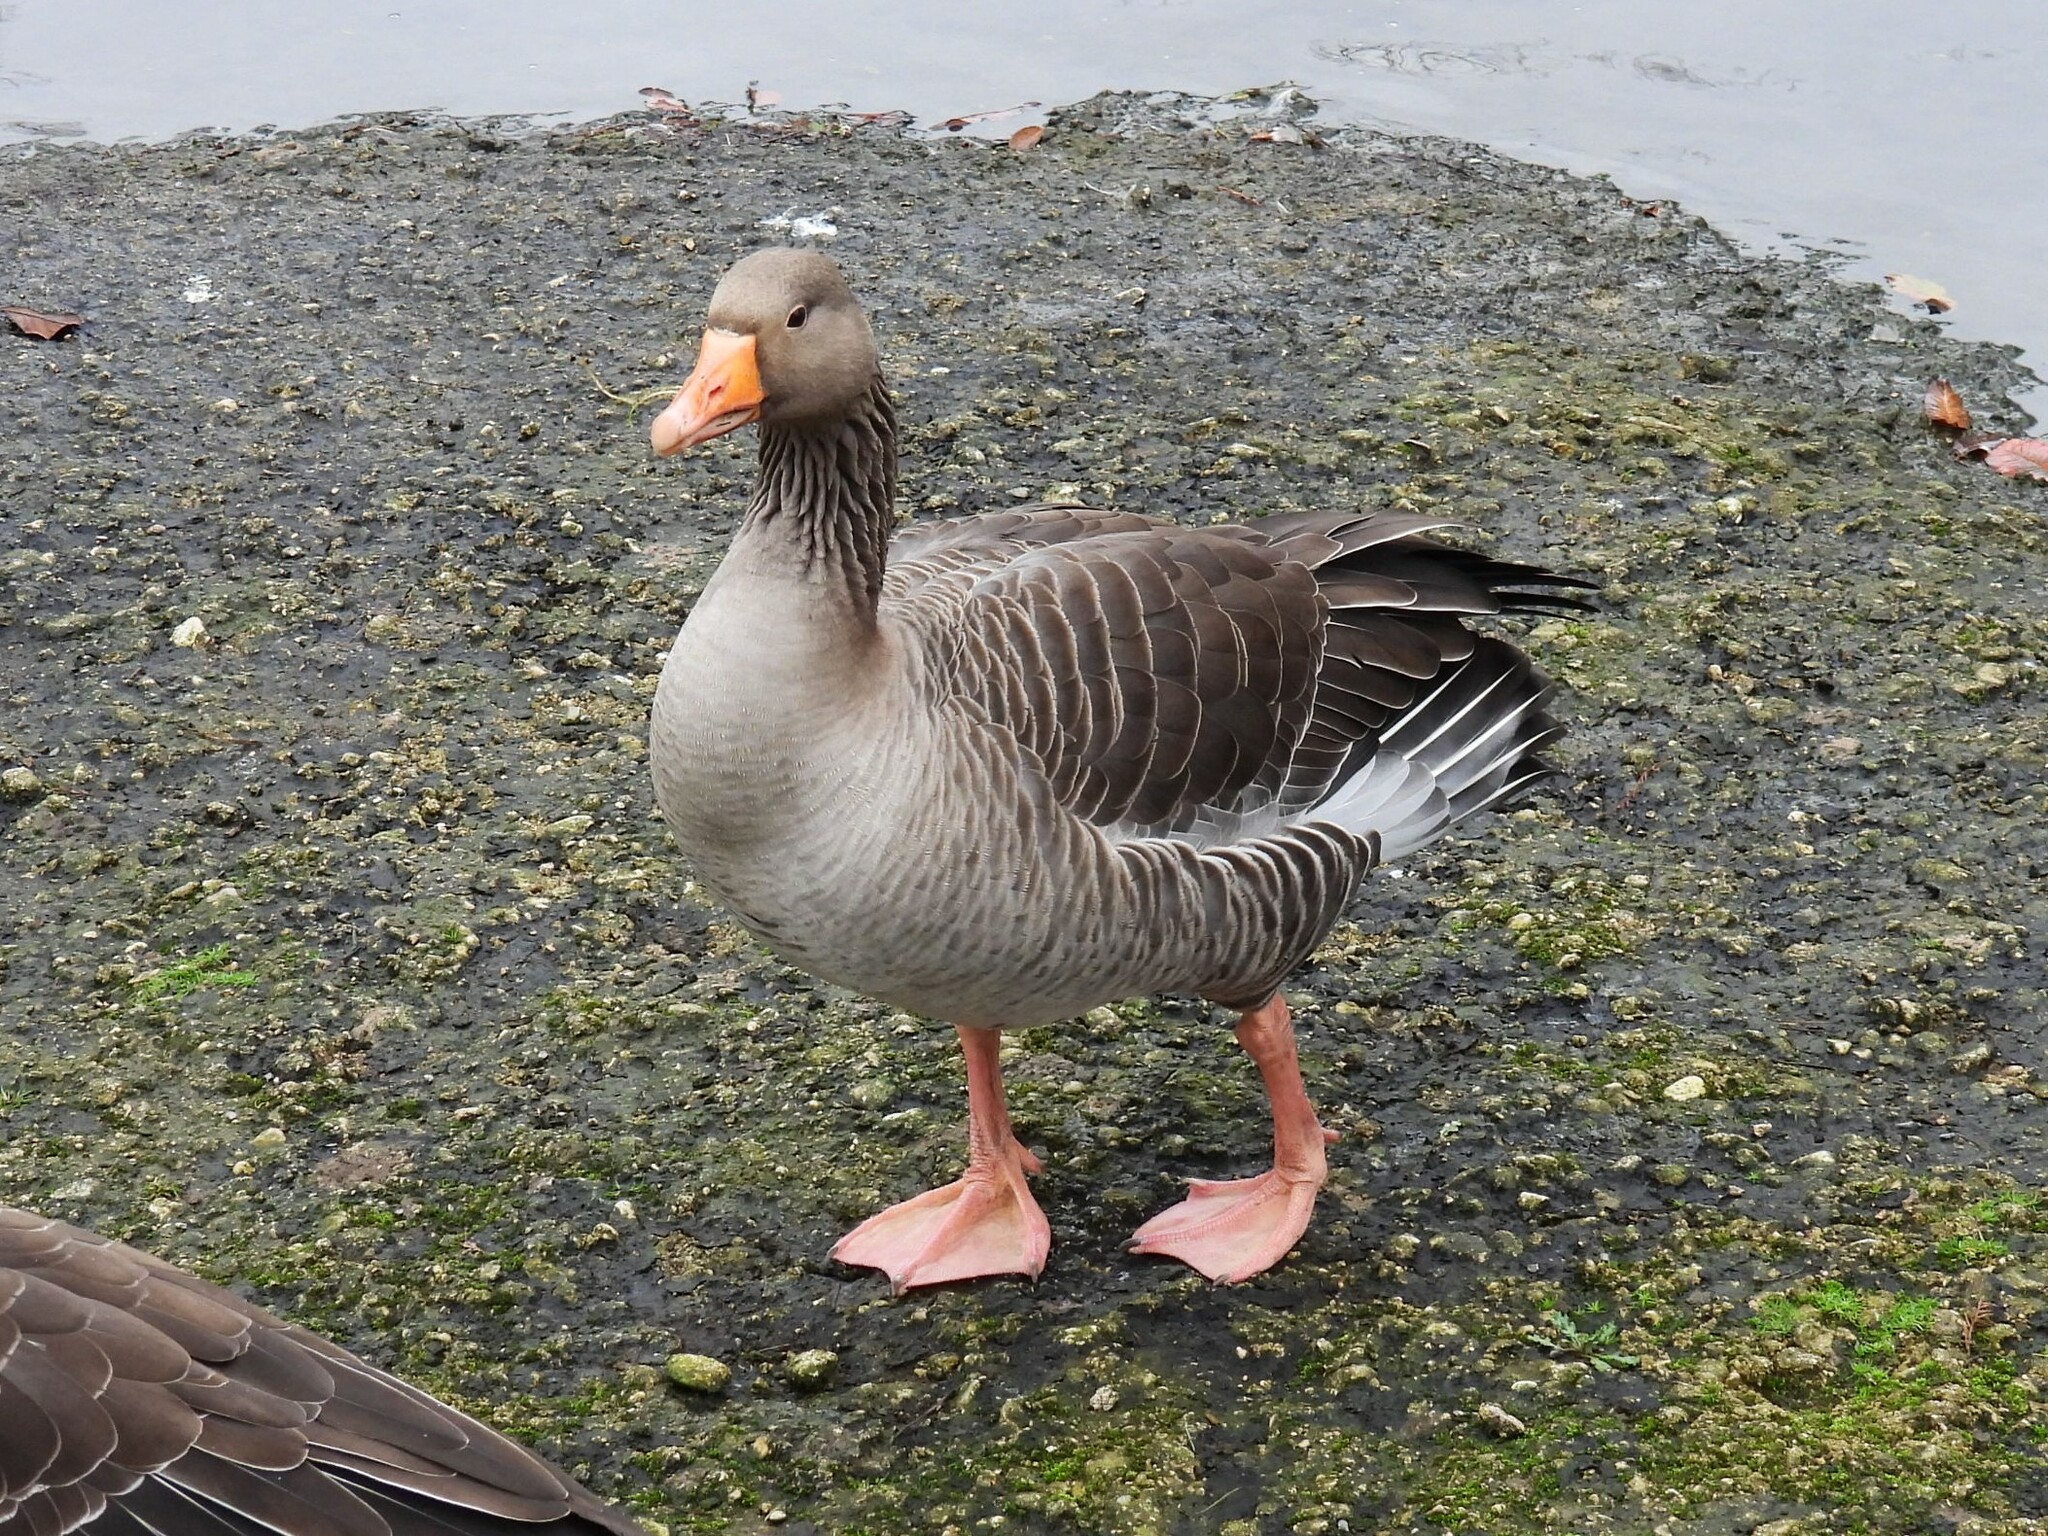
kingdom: Animalia
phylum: Chordata
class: Aves
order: Anseriformes
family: Anatidae
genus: Anser
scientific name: Anser anser
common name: Greylag goose
